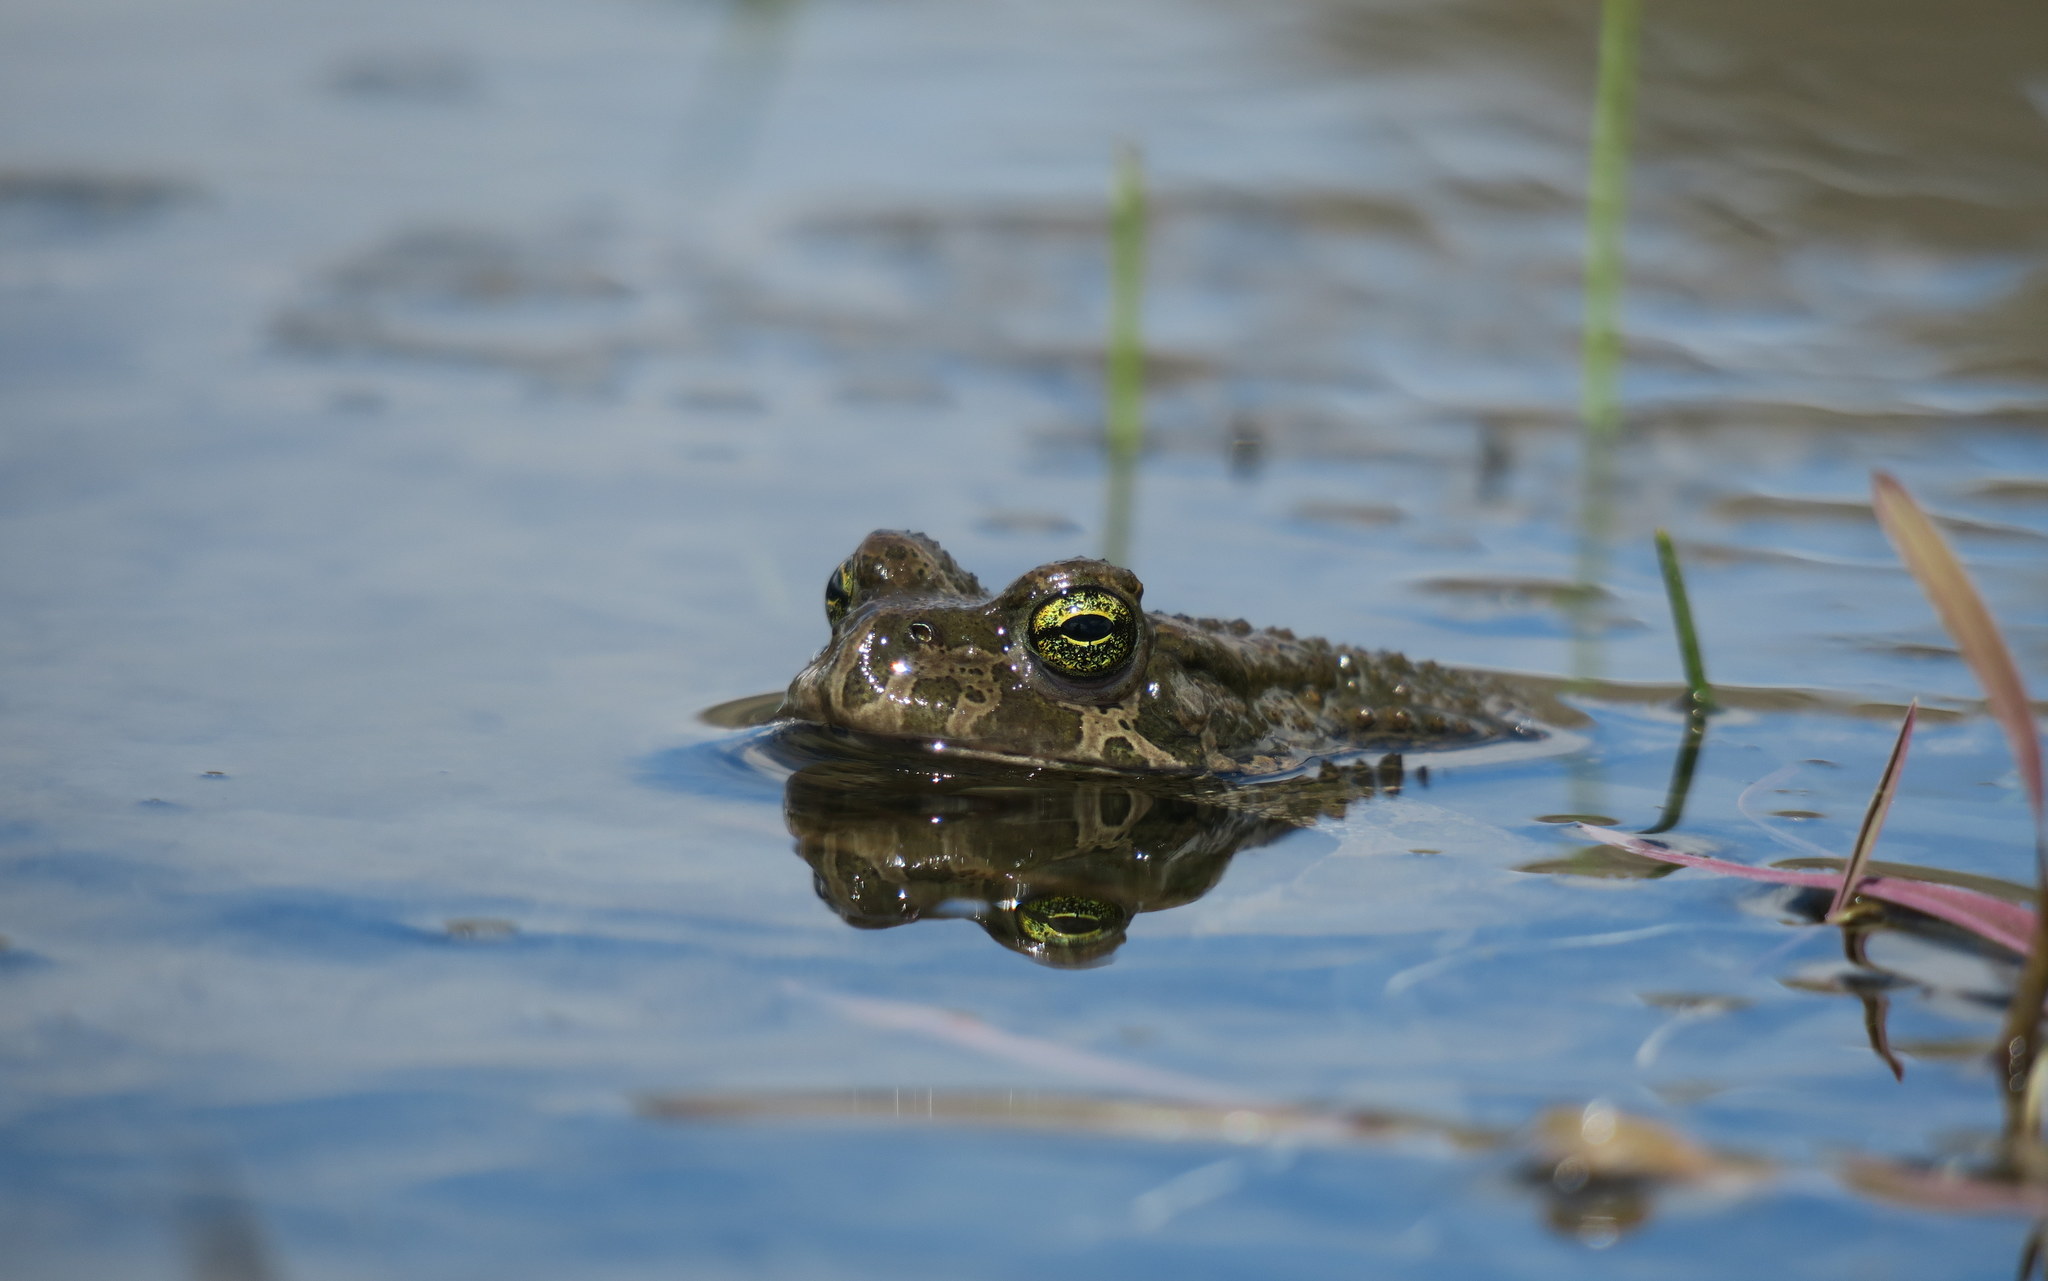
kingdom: Animalia
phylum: Chordata
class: Amphibia
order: Anura
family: Bufonidae
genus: Bufotes
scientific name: Bufotes viridis
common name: European green toad
